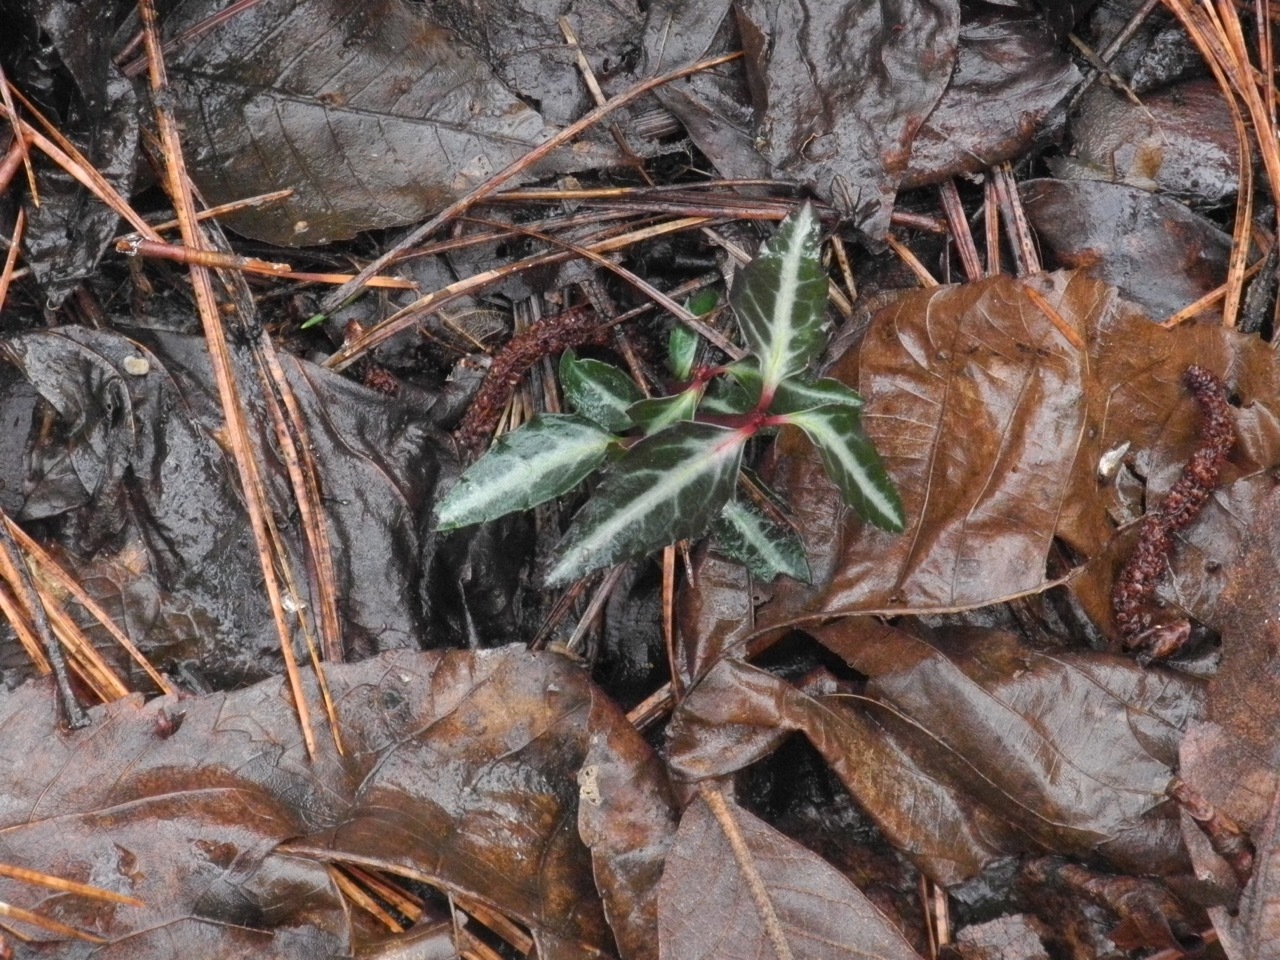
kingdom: Plantae
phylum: Tracheophyta
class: Magnoliopsida
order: Ericales
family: Ericaceae
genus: Chimaphila
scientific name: Chimaphila maculata
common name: Spotted pipsissewa
